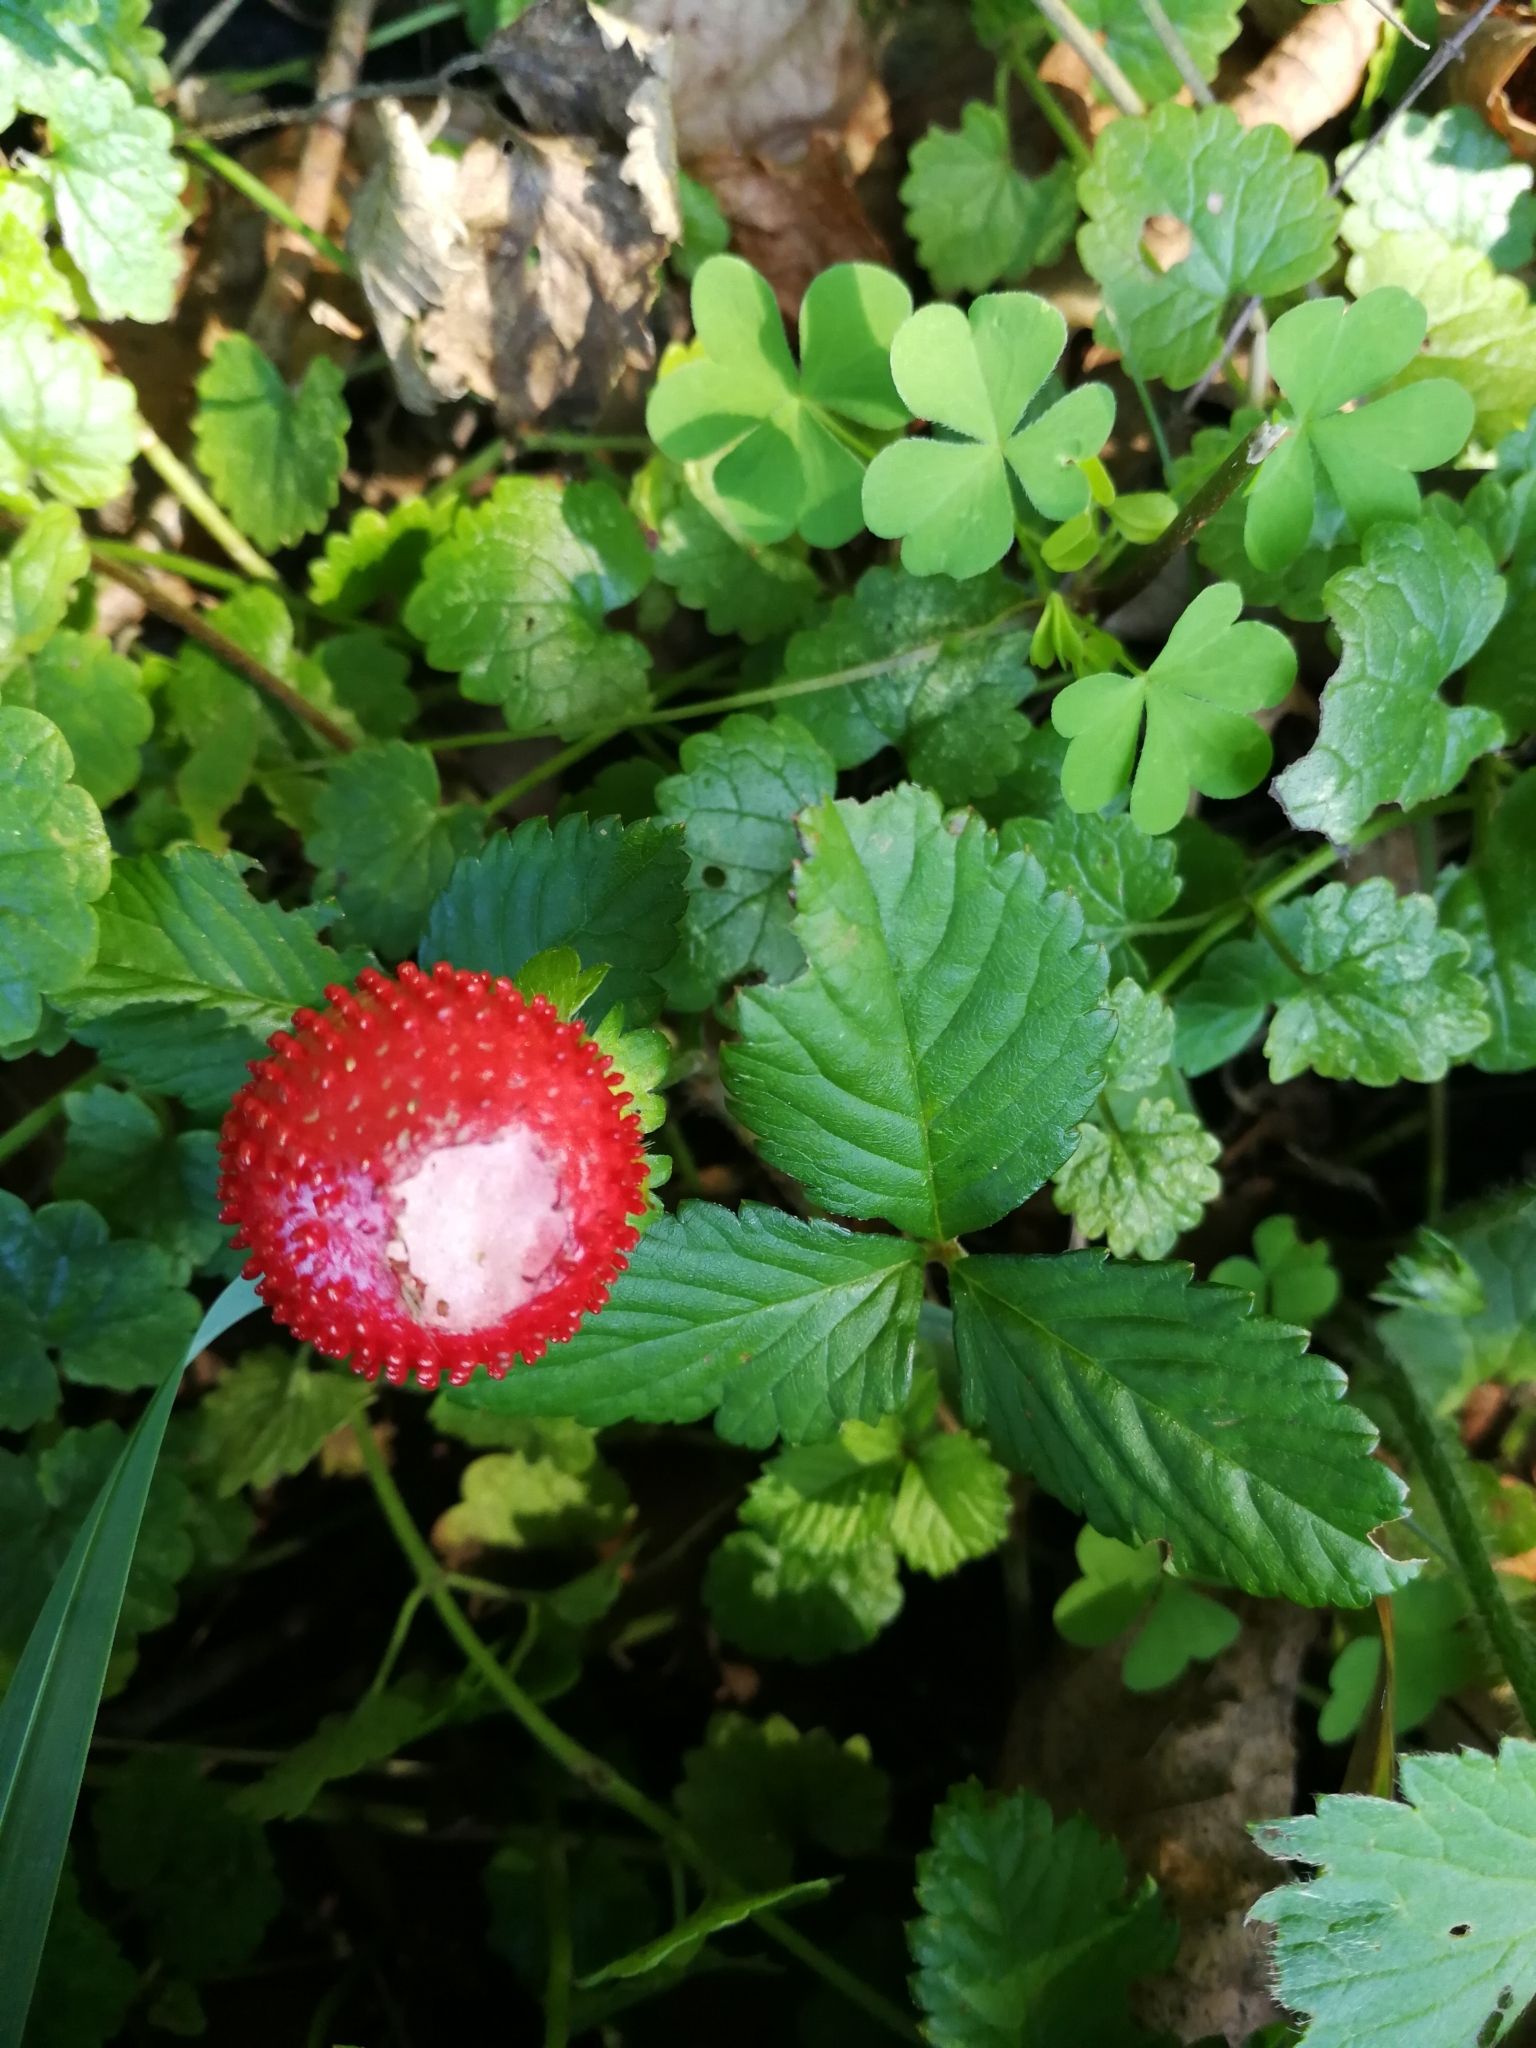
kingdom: Plantae
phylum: Tracheophyta
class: Magnoliopsida
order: Rosales
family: Rosaceae
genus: Potentilla
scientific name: Potentilla indica
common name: Yellow-flowered strawberry
